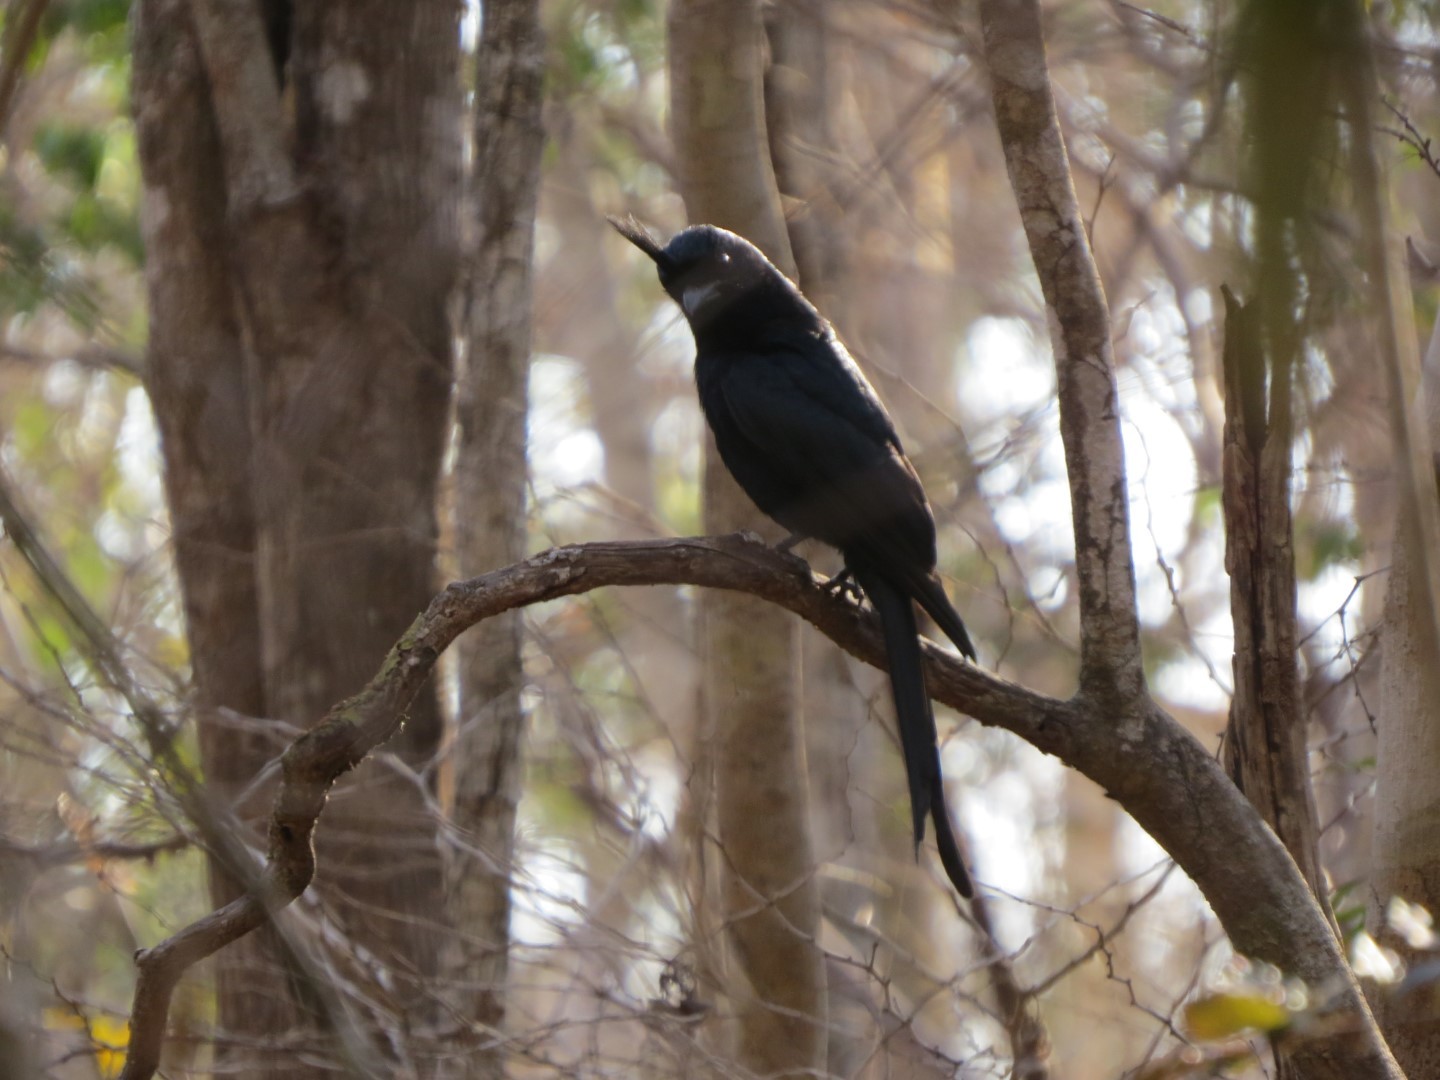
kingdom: Animalia
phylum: Chordata
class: Aves
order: Passeriformes
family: Dicruridae
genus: Dicrurus
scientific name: Dicrurus forficatus
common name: Crested drongo
